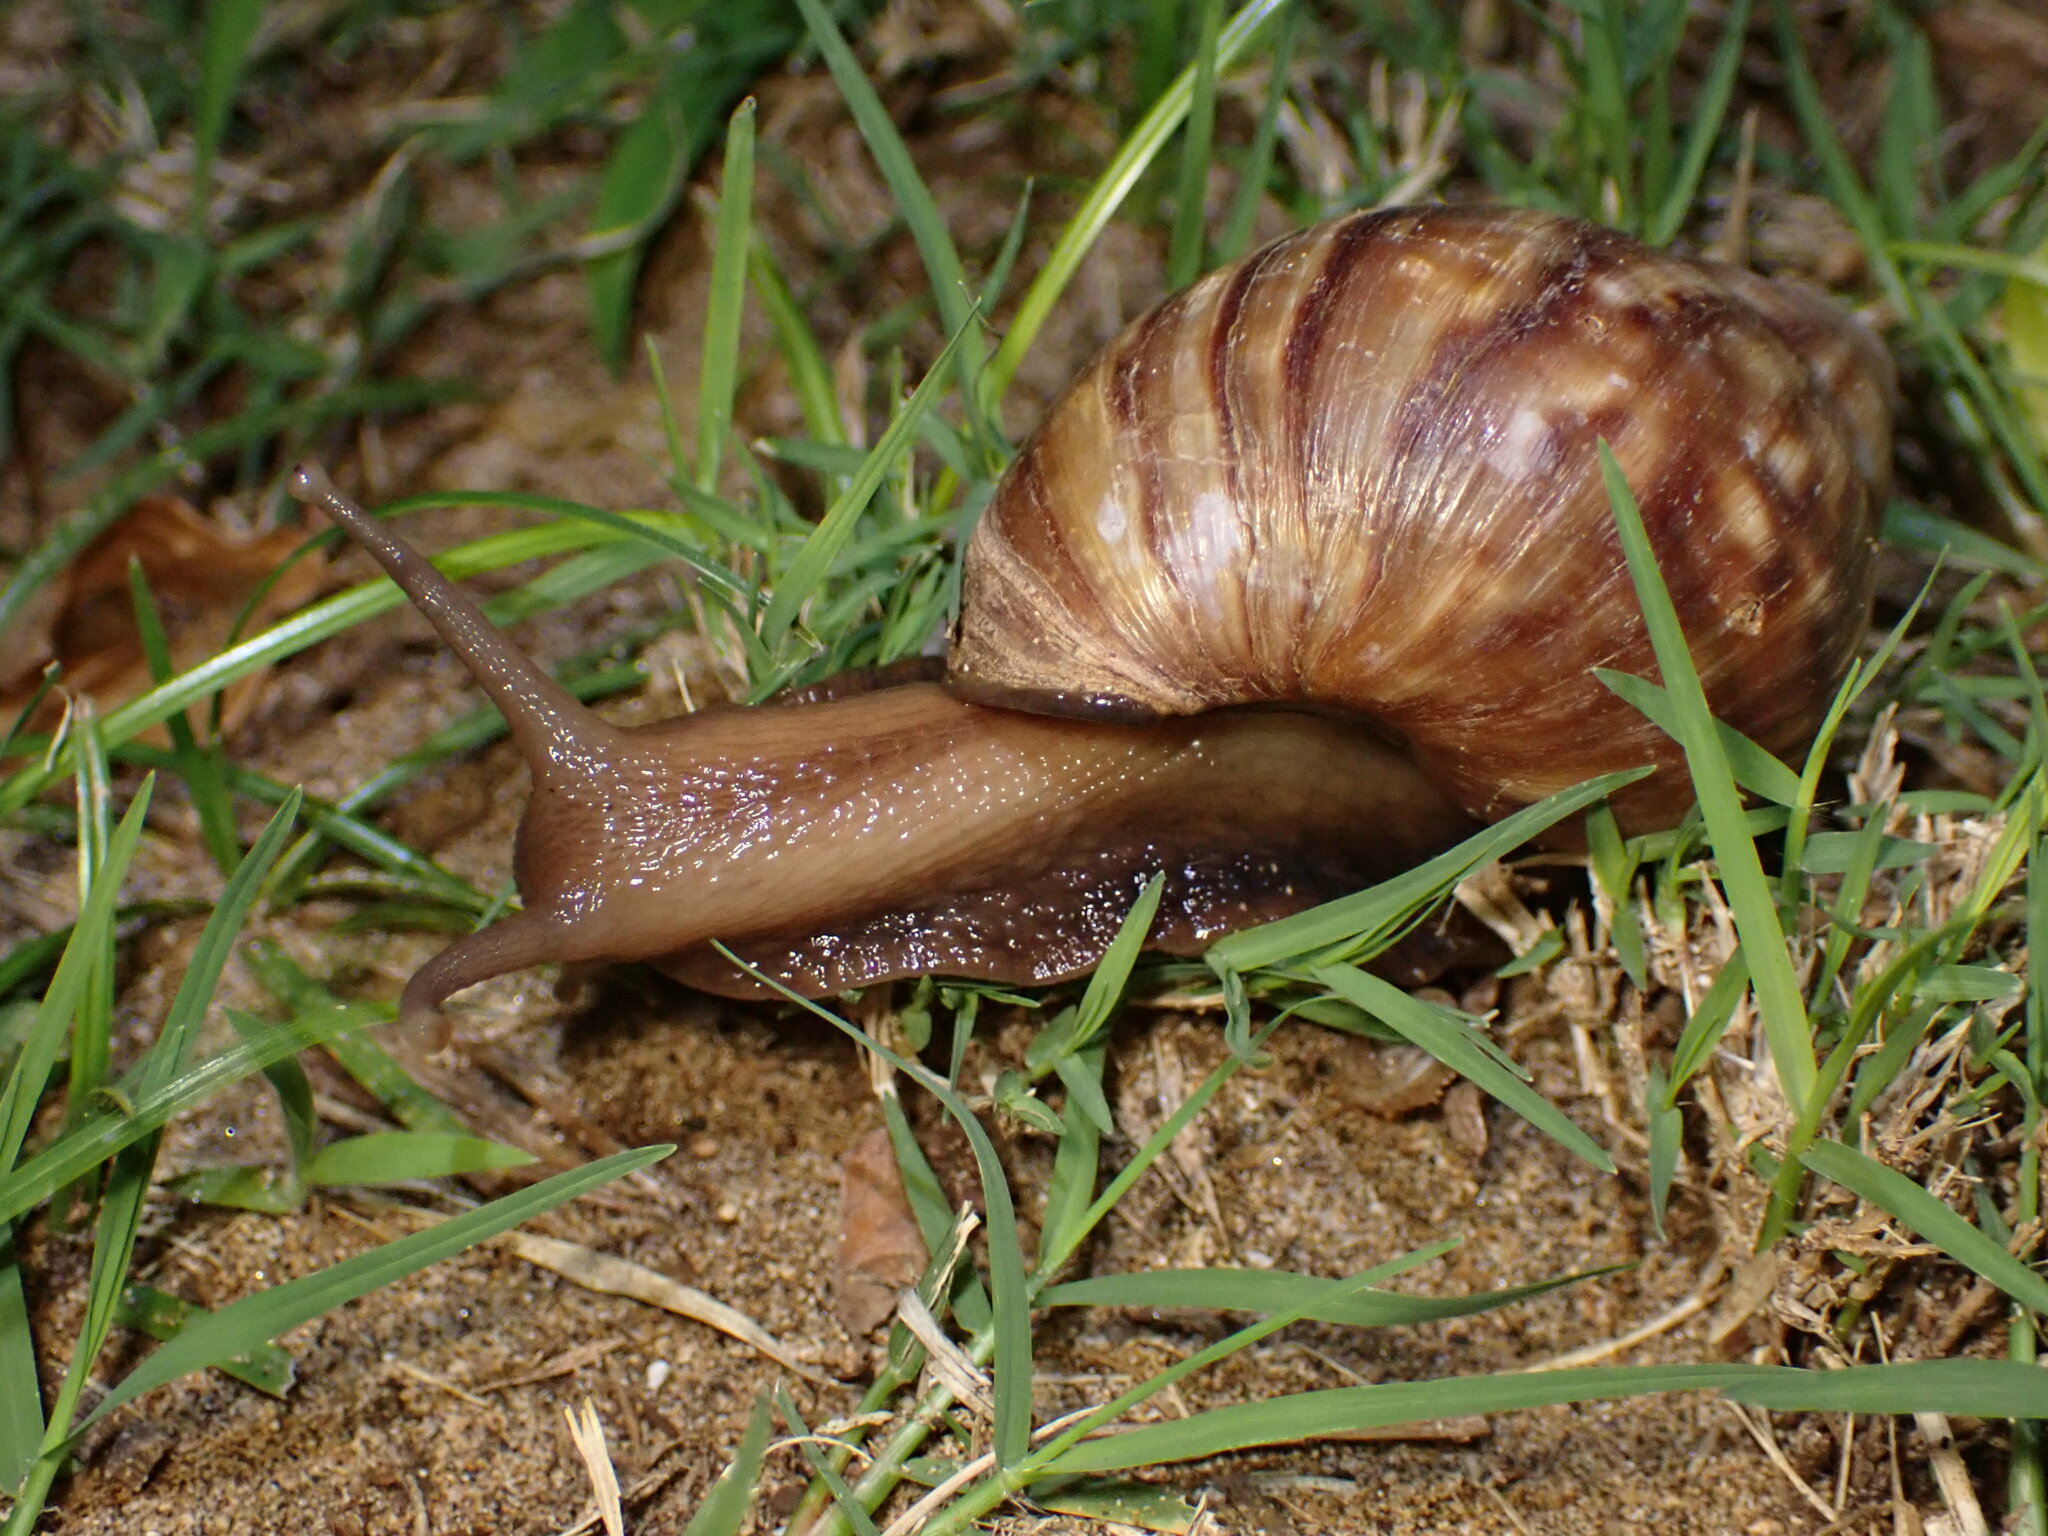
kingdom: Animalia
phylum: Mollusca
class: Gastropoda
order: Stylommatophora
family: Achatinidae
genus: Lissachatina
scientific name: Lissachatina fulica
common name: Giant african snail
